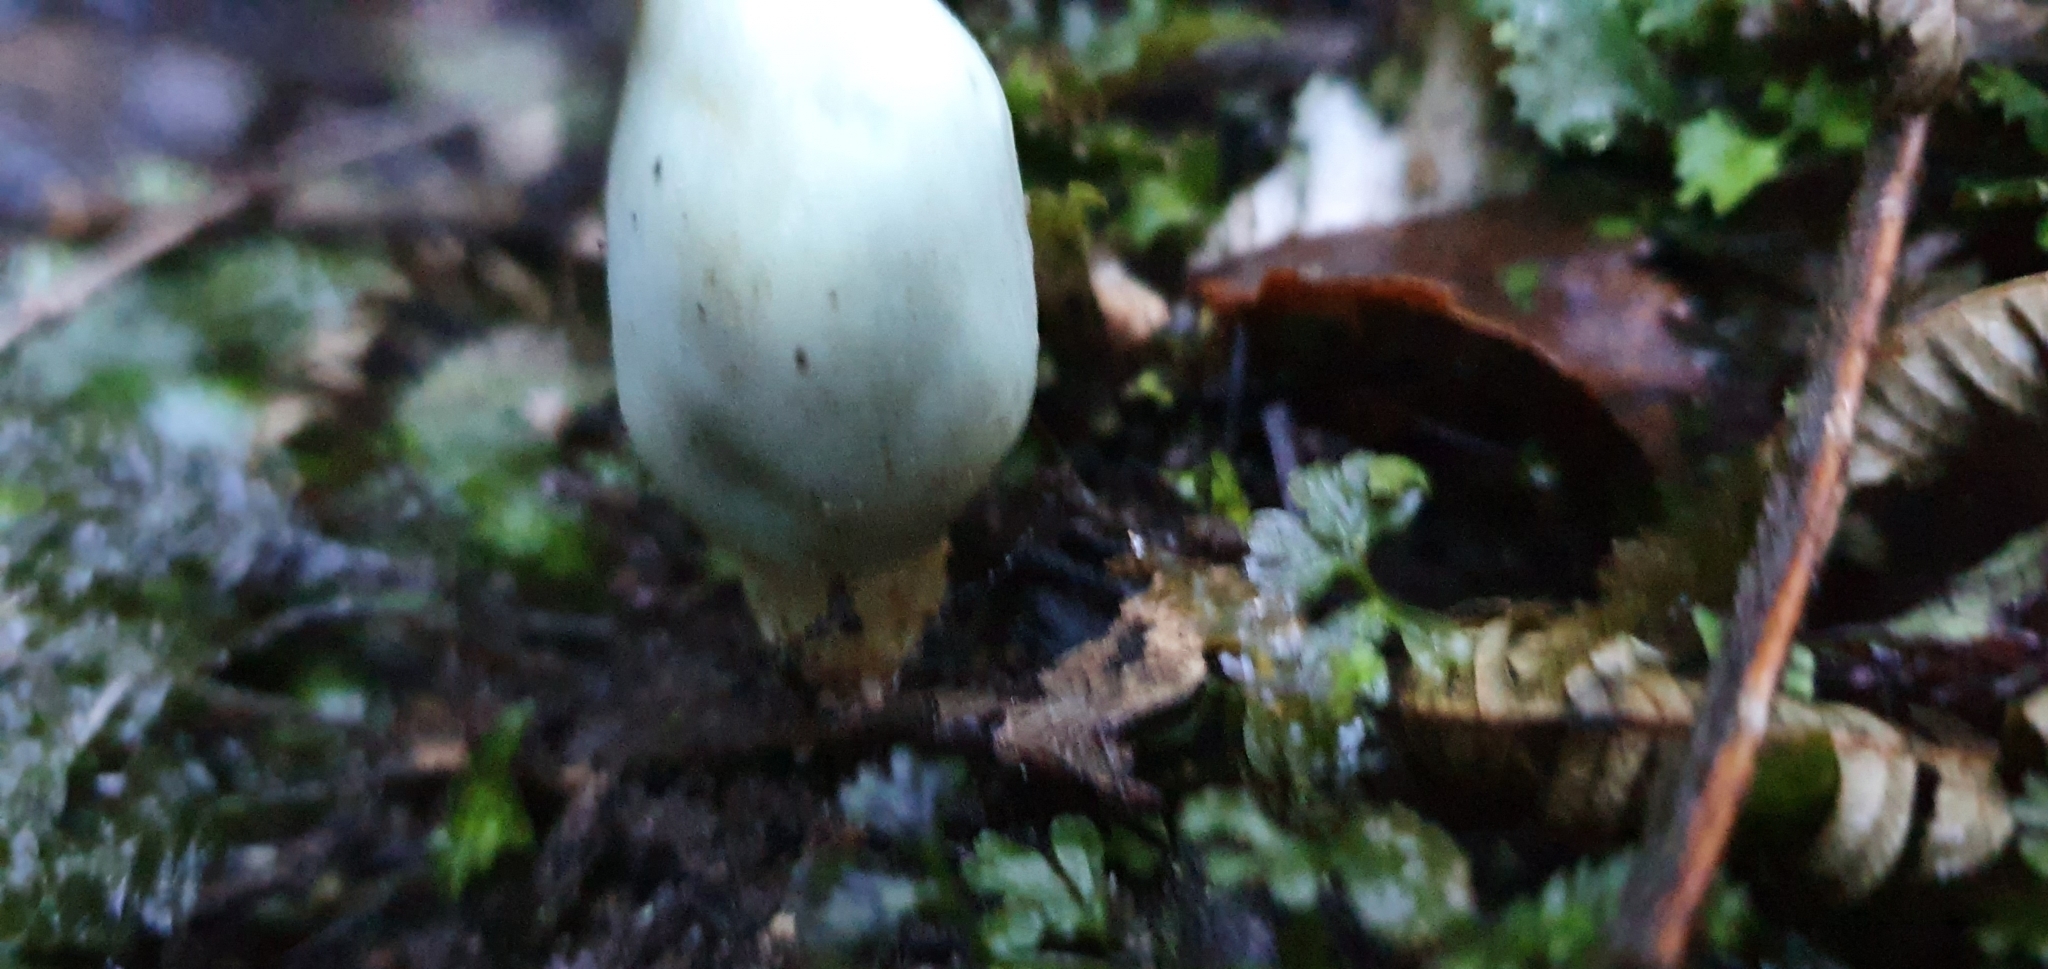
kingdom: Fungi
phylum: Basidiomycota
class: Agaricomycetes
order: Agaricales
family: Agaricaceae
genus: Clavogaster
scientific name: Clavogaster virescens
